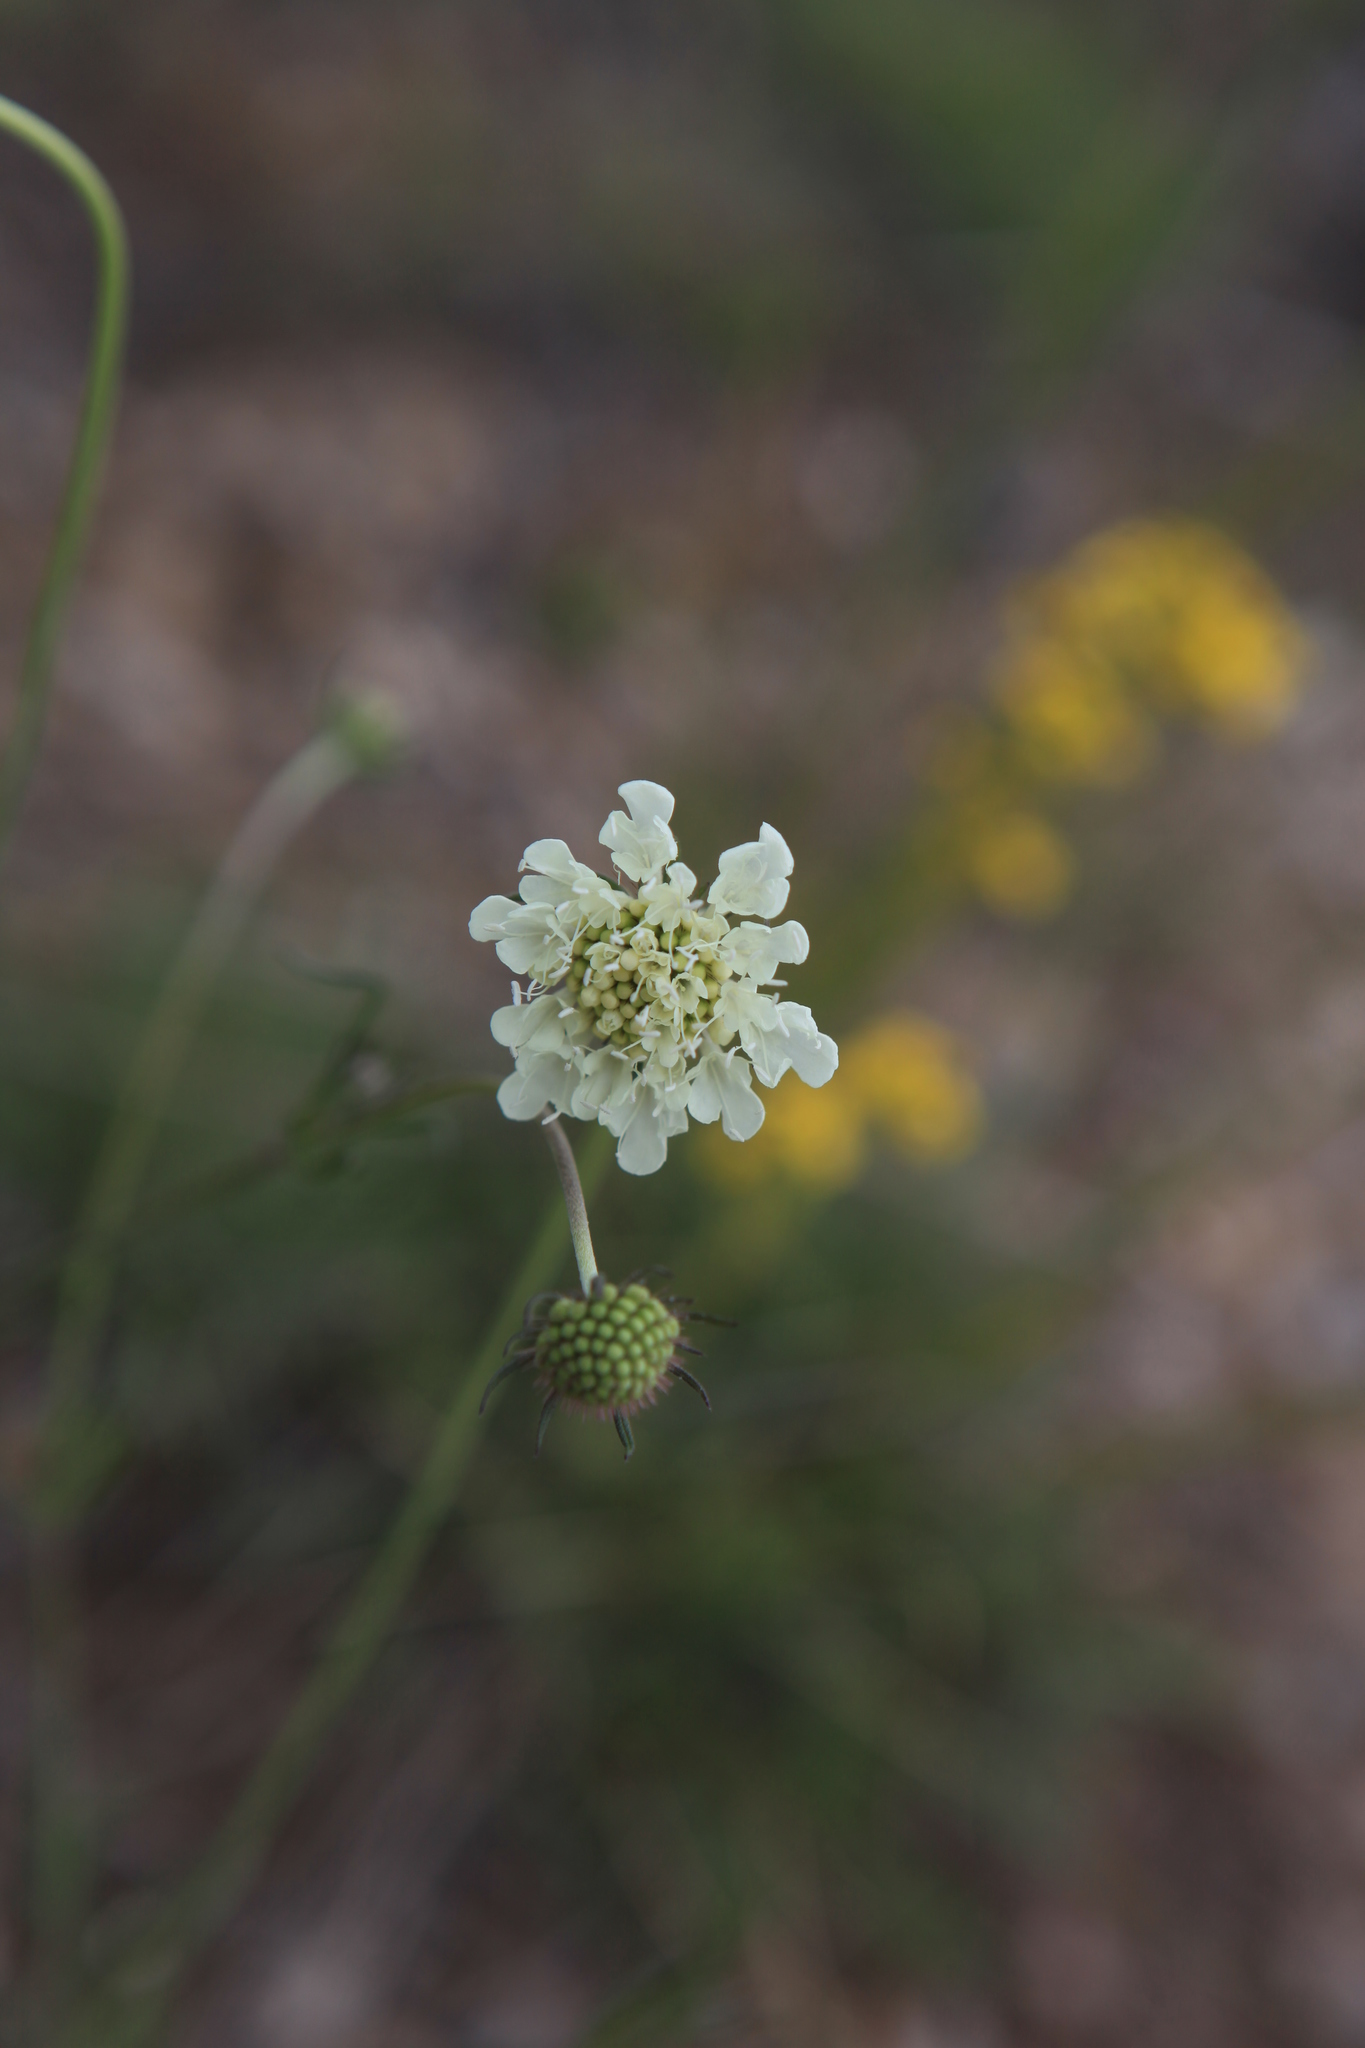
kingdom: Plantae
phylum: Tracheophyta
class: Magnoliopsida
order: Dipsacales
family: Caprifoliaceae
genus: Scabiosa
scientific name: Scabiosa ochroleuca
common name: Cream pincushions
